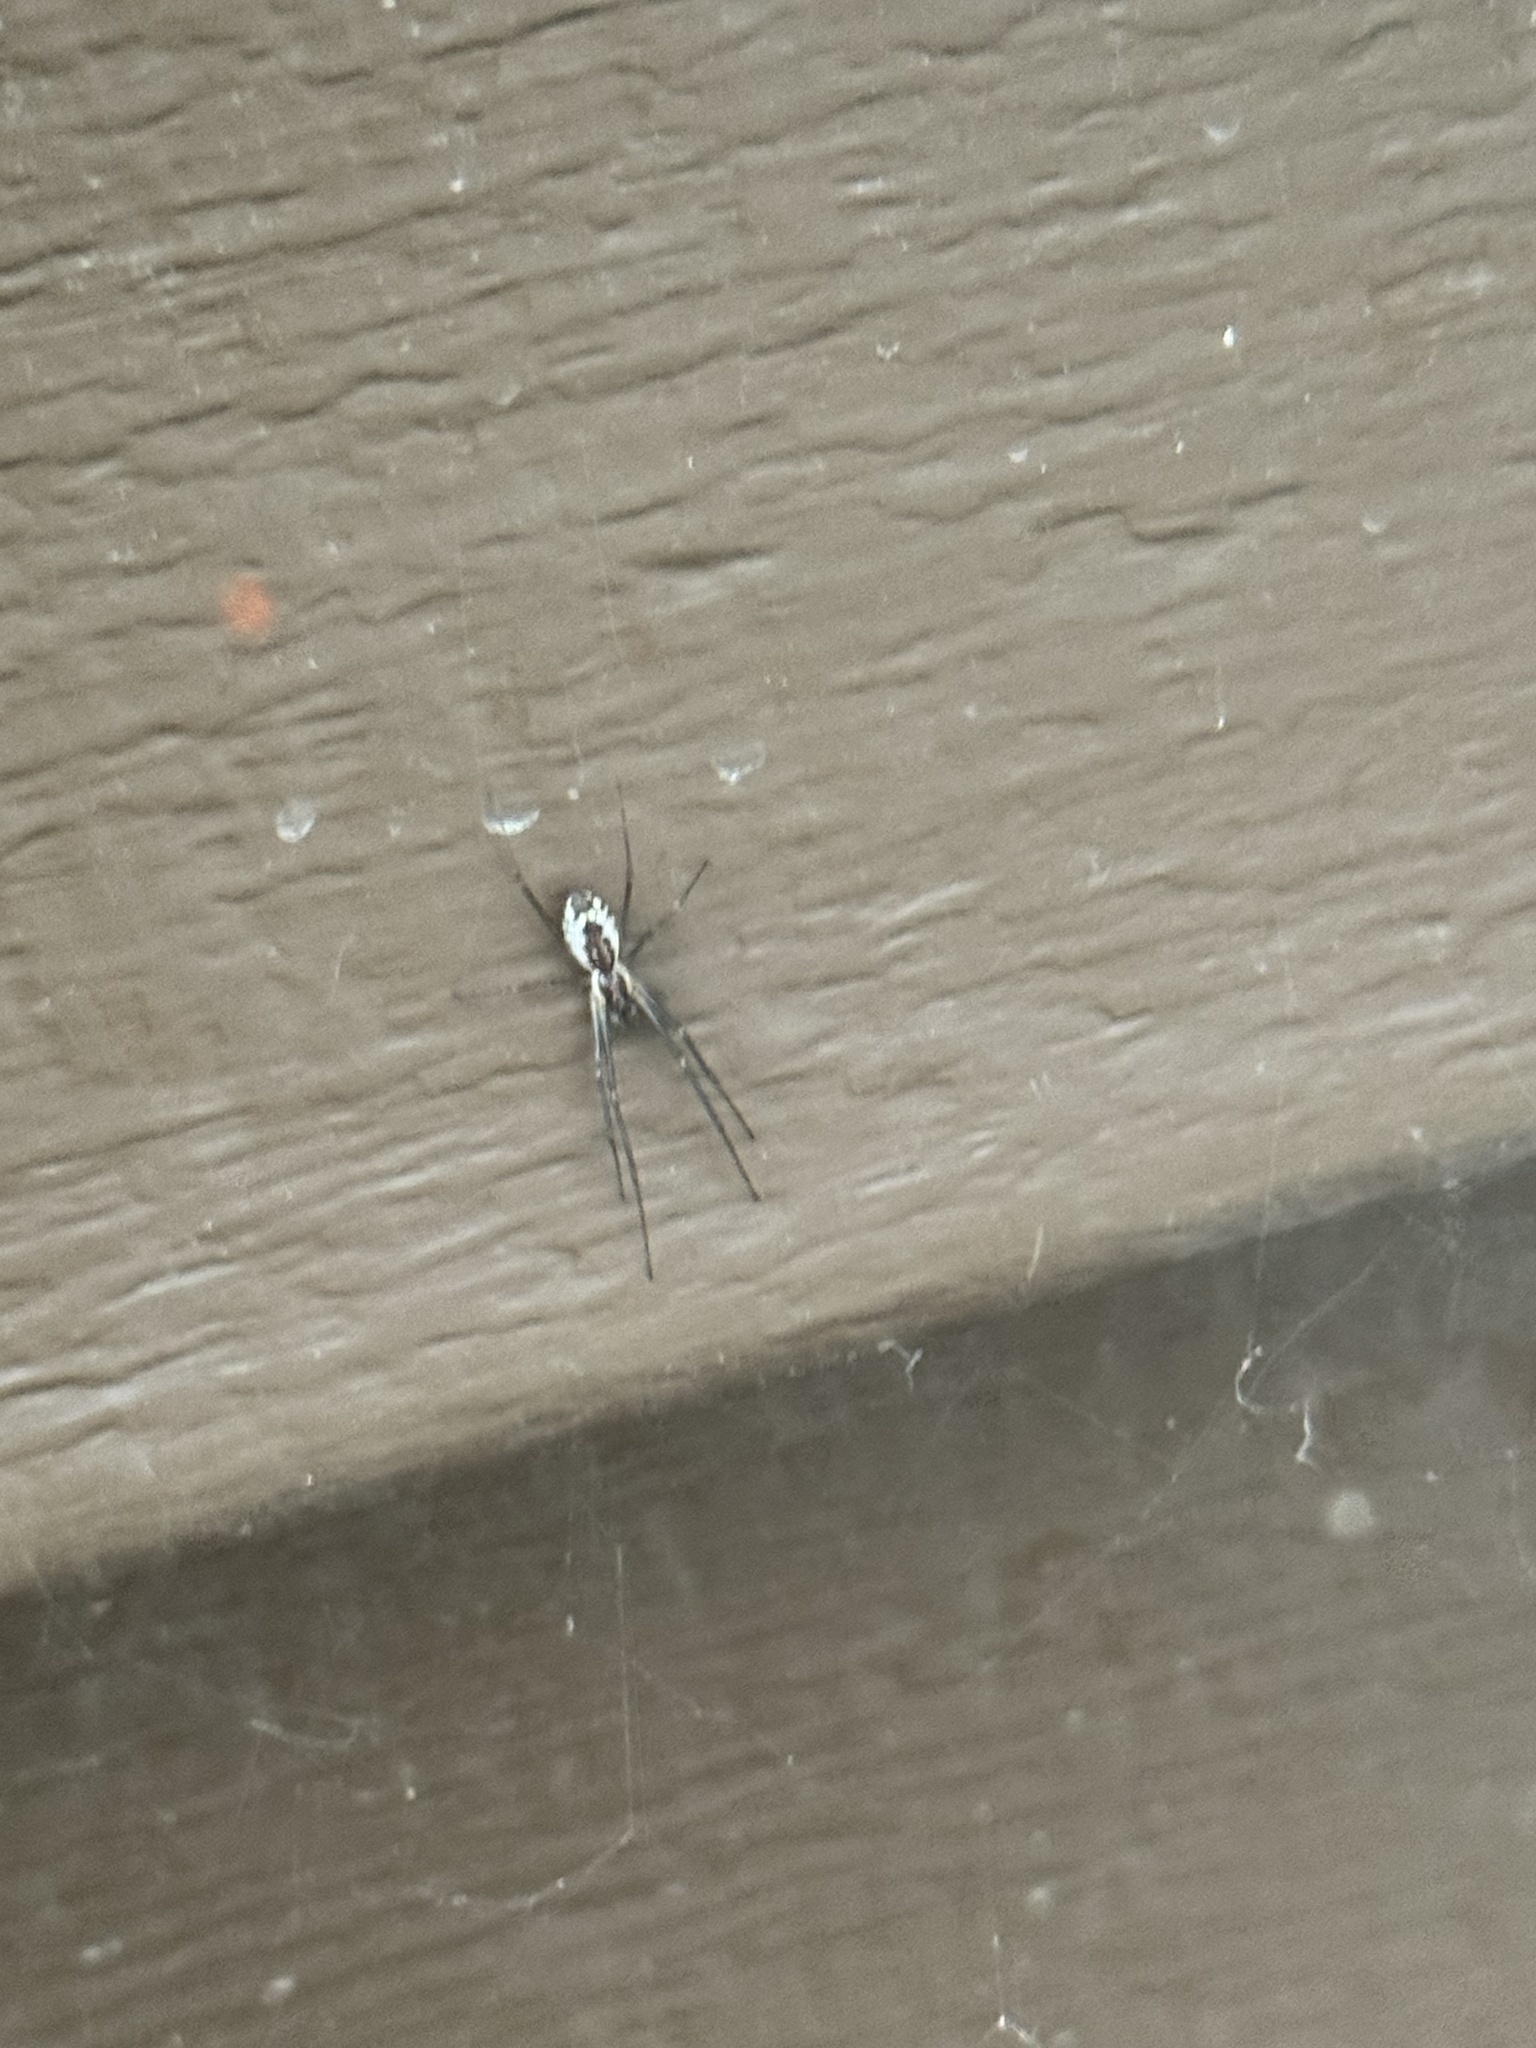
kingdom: Animalia
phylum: Arthropoda
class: Arachnida
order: Araneae
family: Linyphiidae
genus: Neriene
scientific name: Neriene radiata
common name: Filmy dome spider
